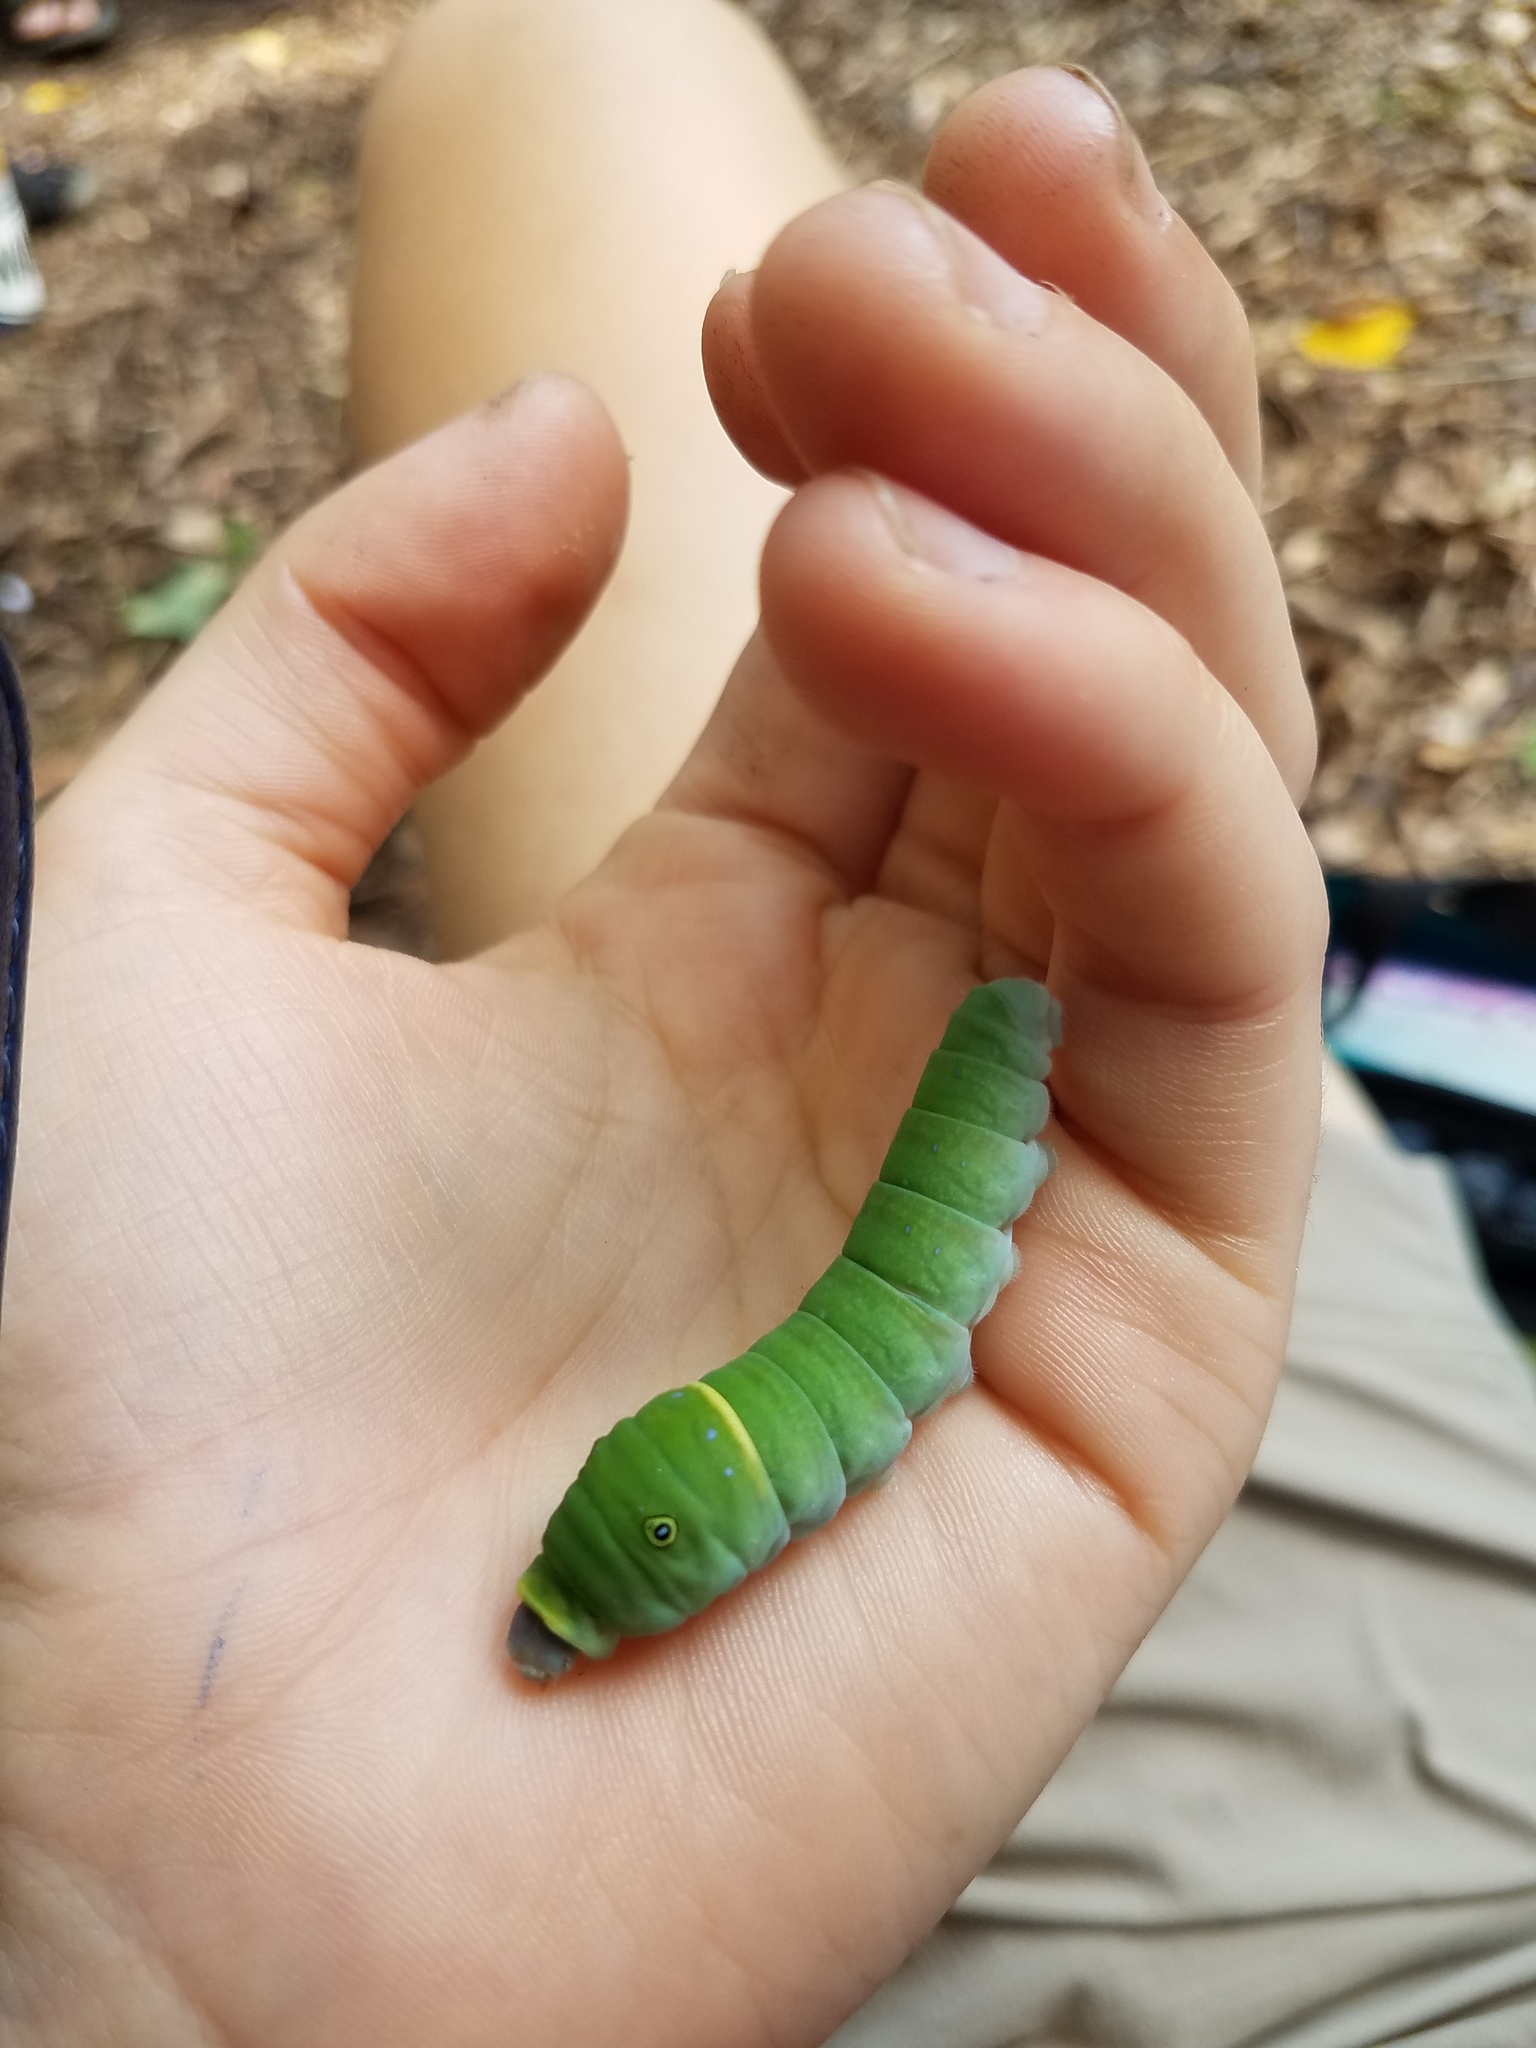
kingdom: Animalia
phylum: Arthropoda
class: Insecta
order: Lepidoptera
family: Papilionidae
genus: Papilio
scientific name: Papilio glaucus
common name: Tiger swallowtail
